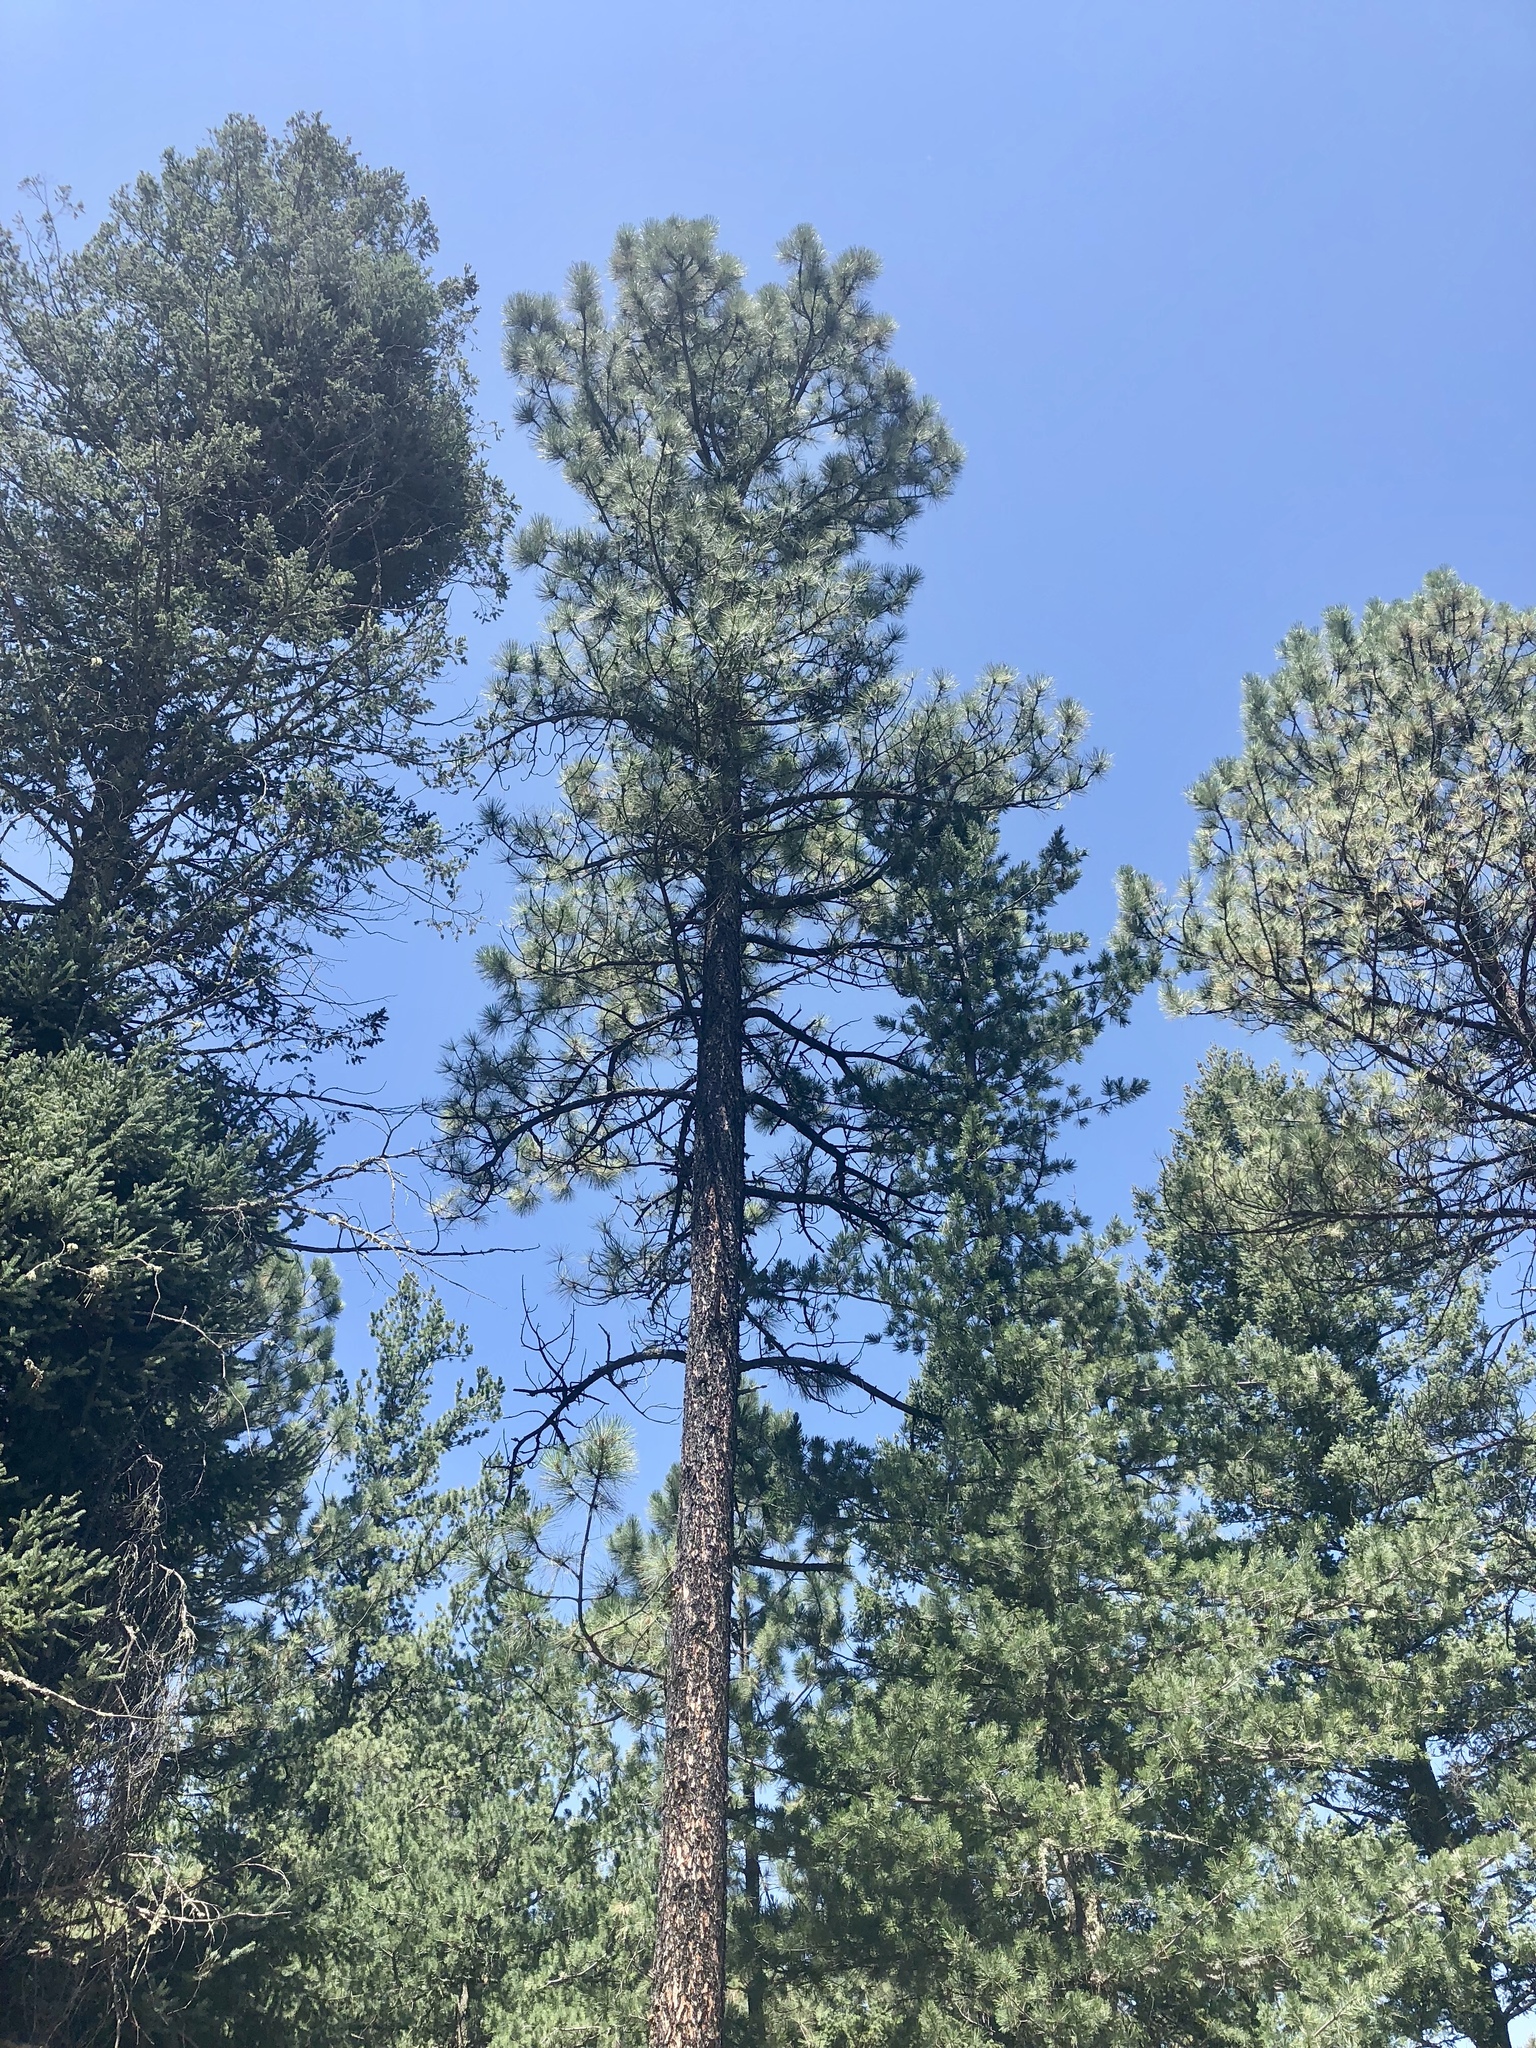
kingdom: Plantae
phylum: Tracheophyta
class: Pinopsida
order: Pinales
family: Pinaceae
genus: Pinus
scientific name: Pinus ponderosa
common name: Western yellow-pine
